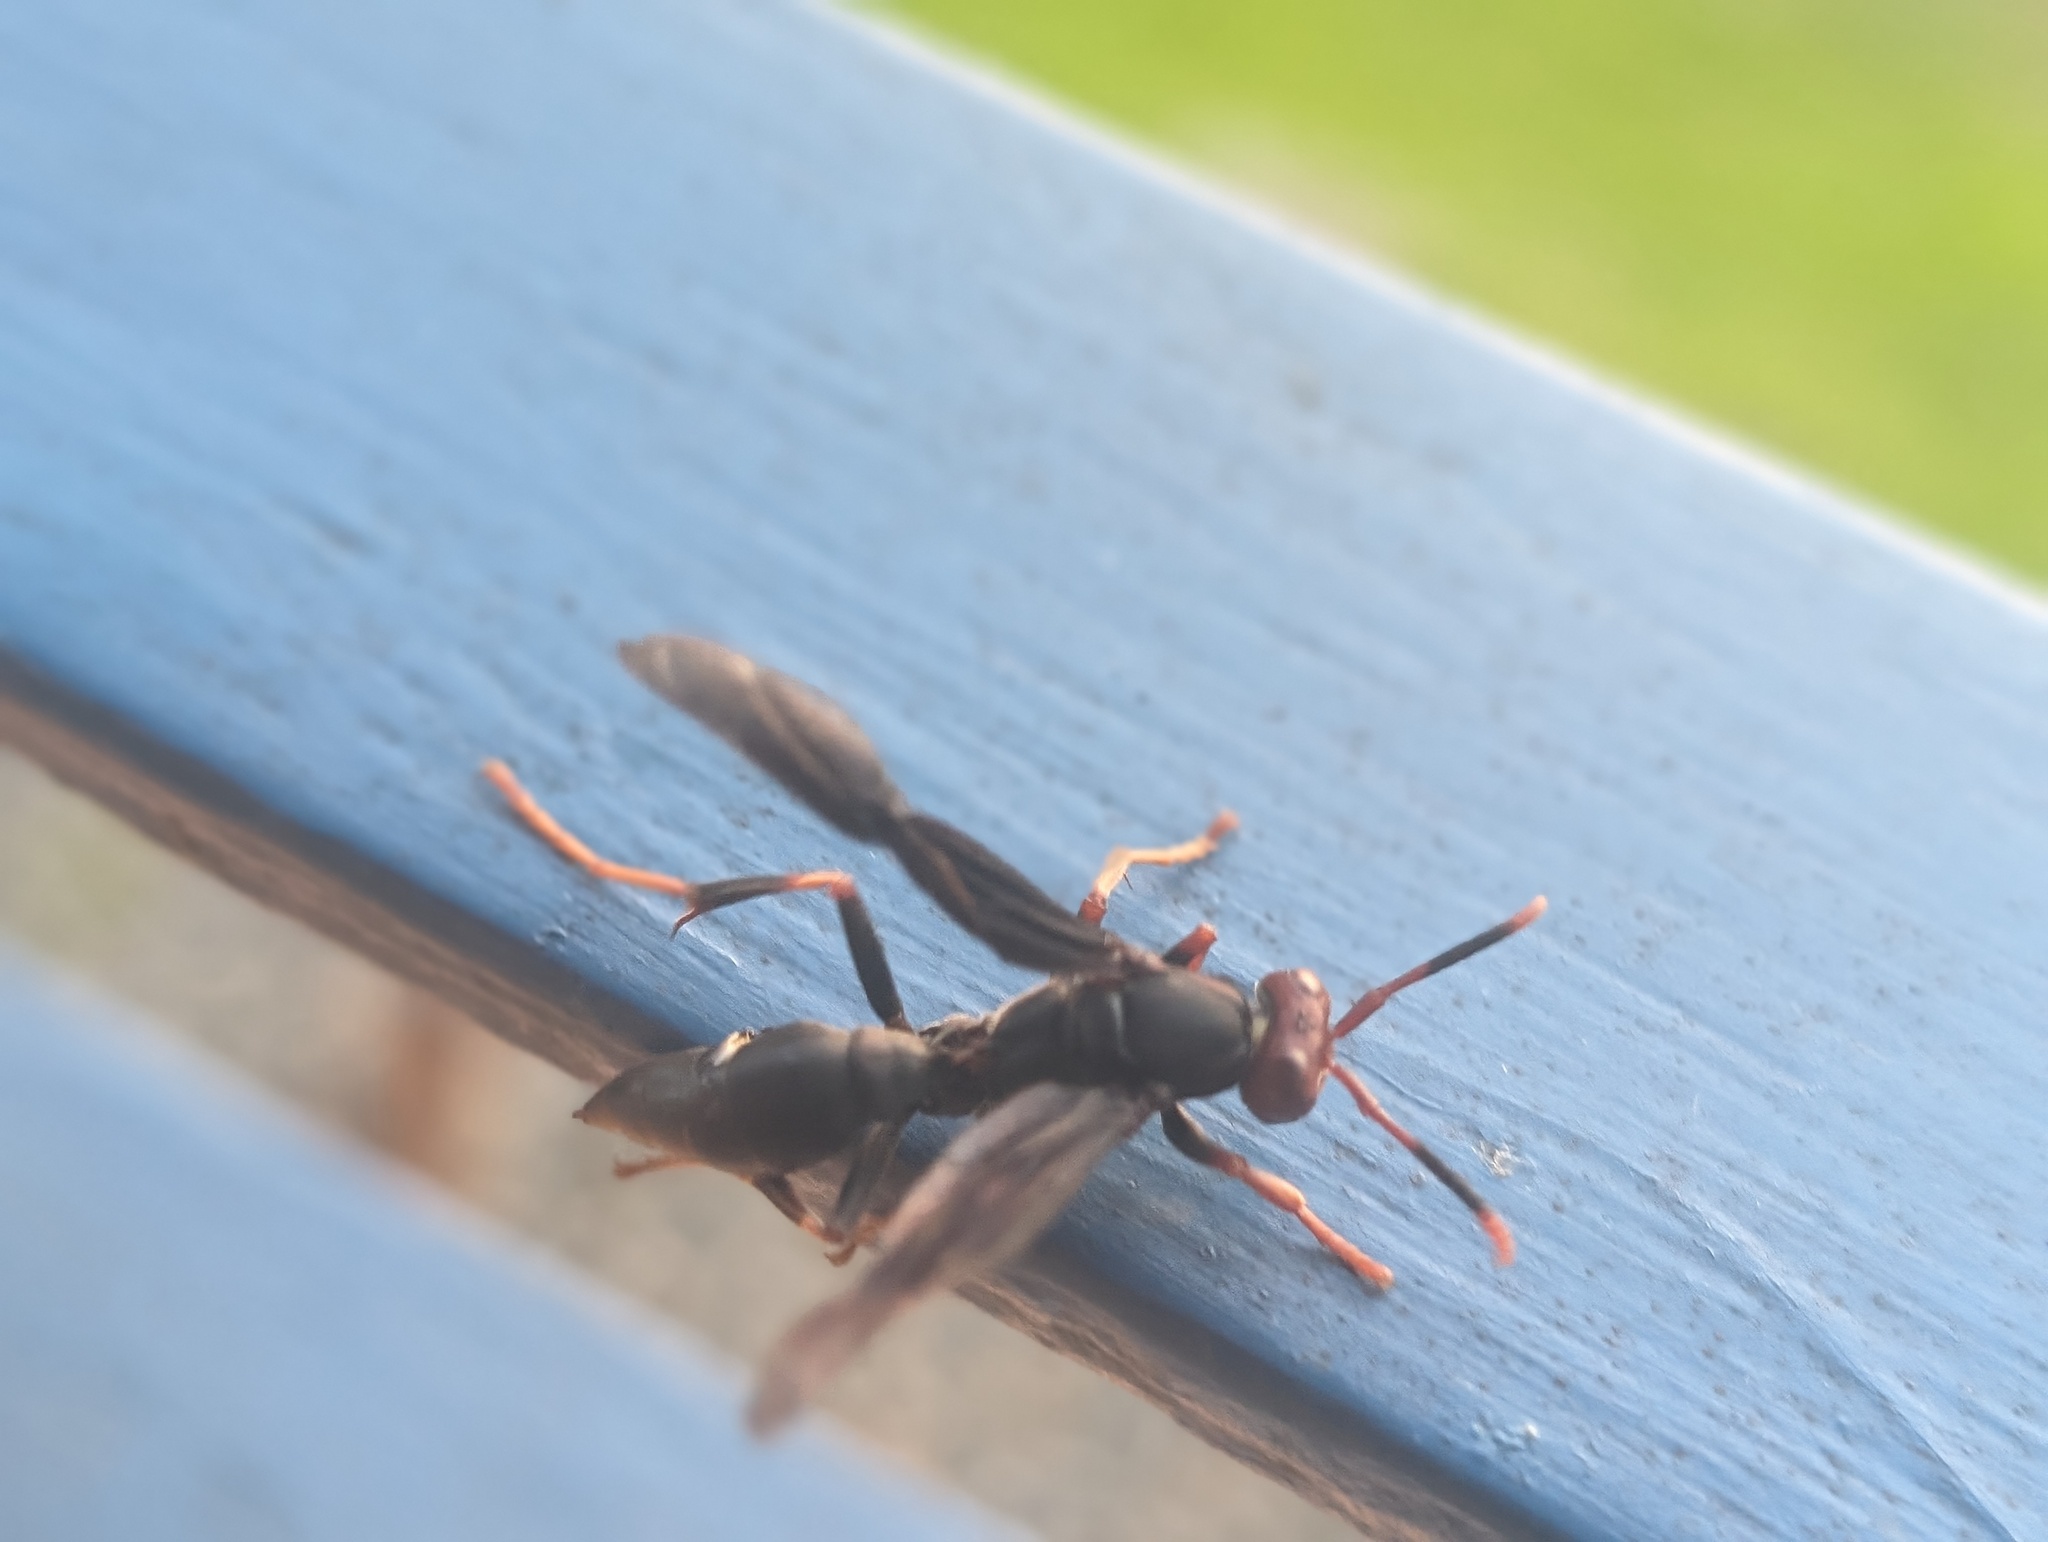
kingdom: Animalia
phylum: Arthropoda
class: Insecta
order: Hymenoptera
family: Eumenidae
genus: Polistes
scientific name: Polistes erythrocephalus
